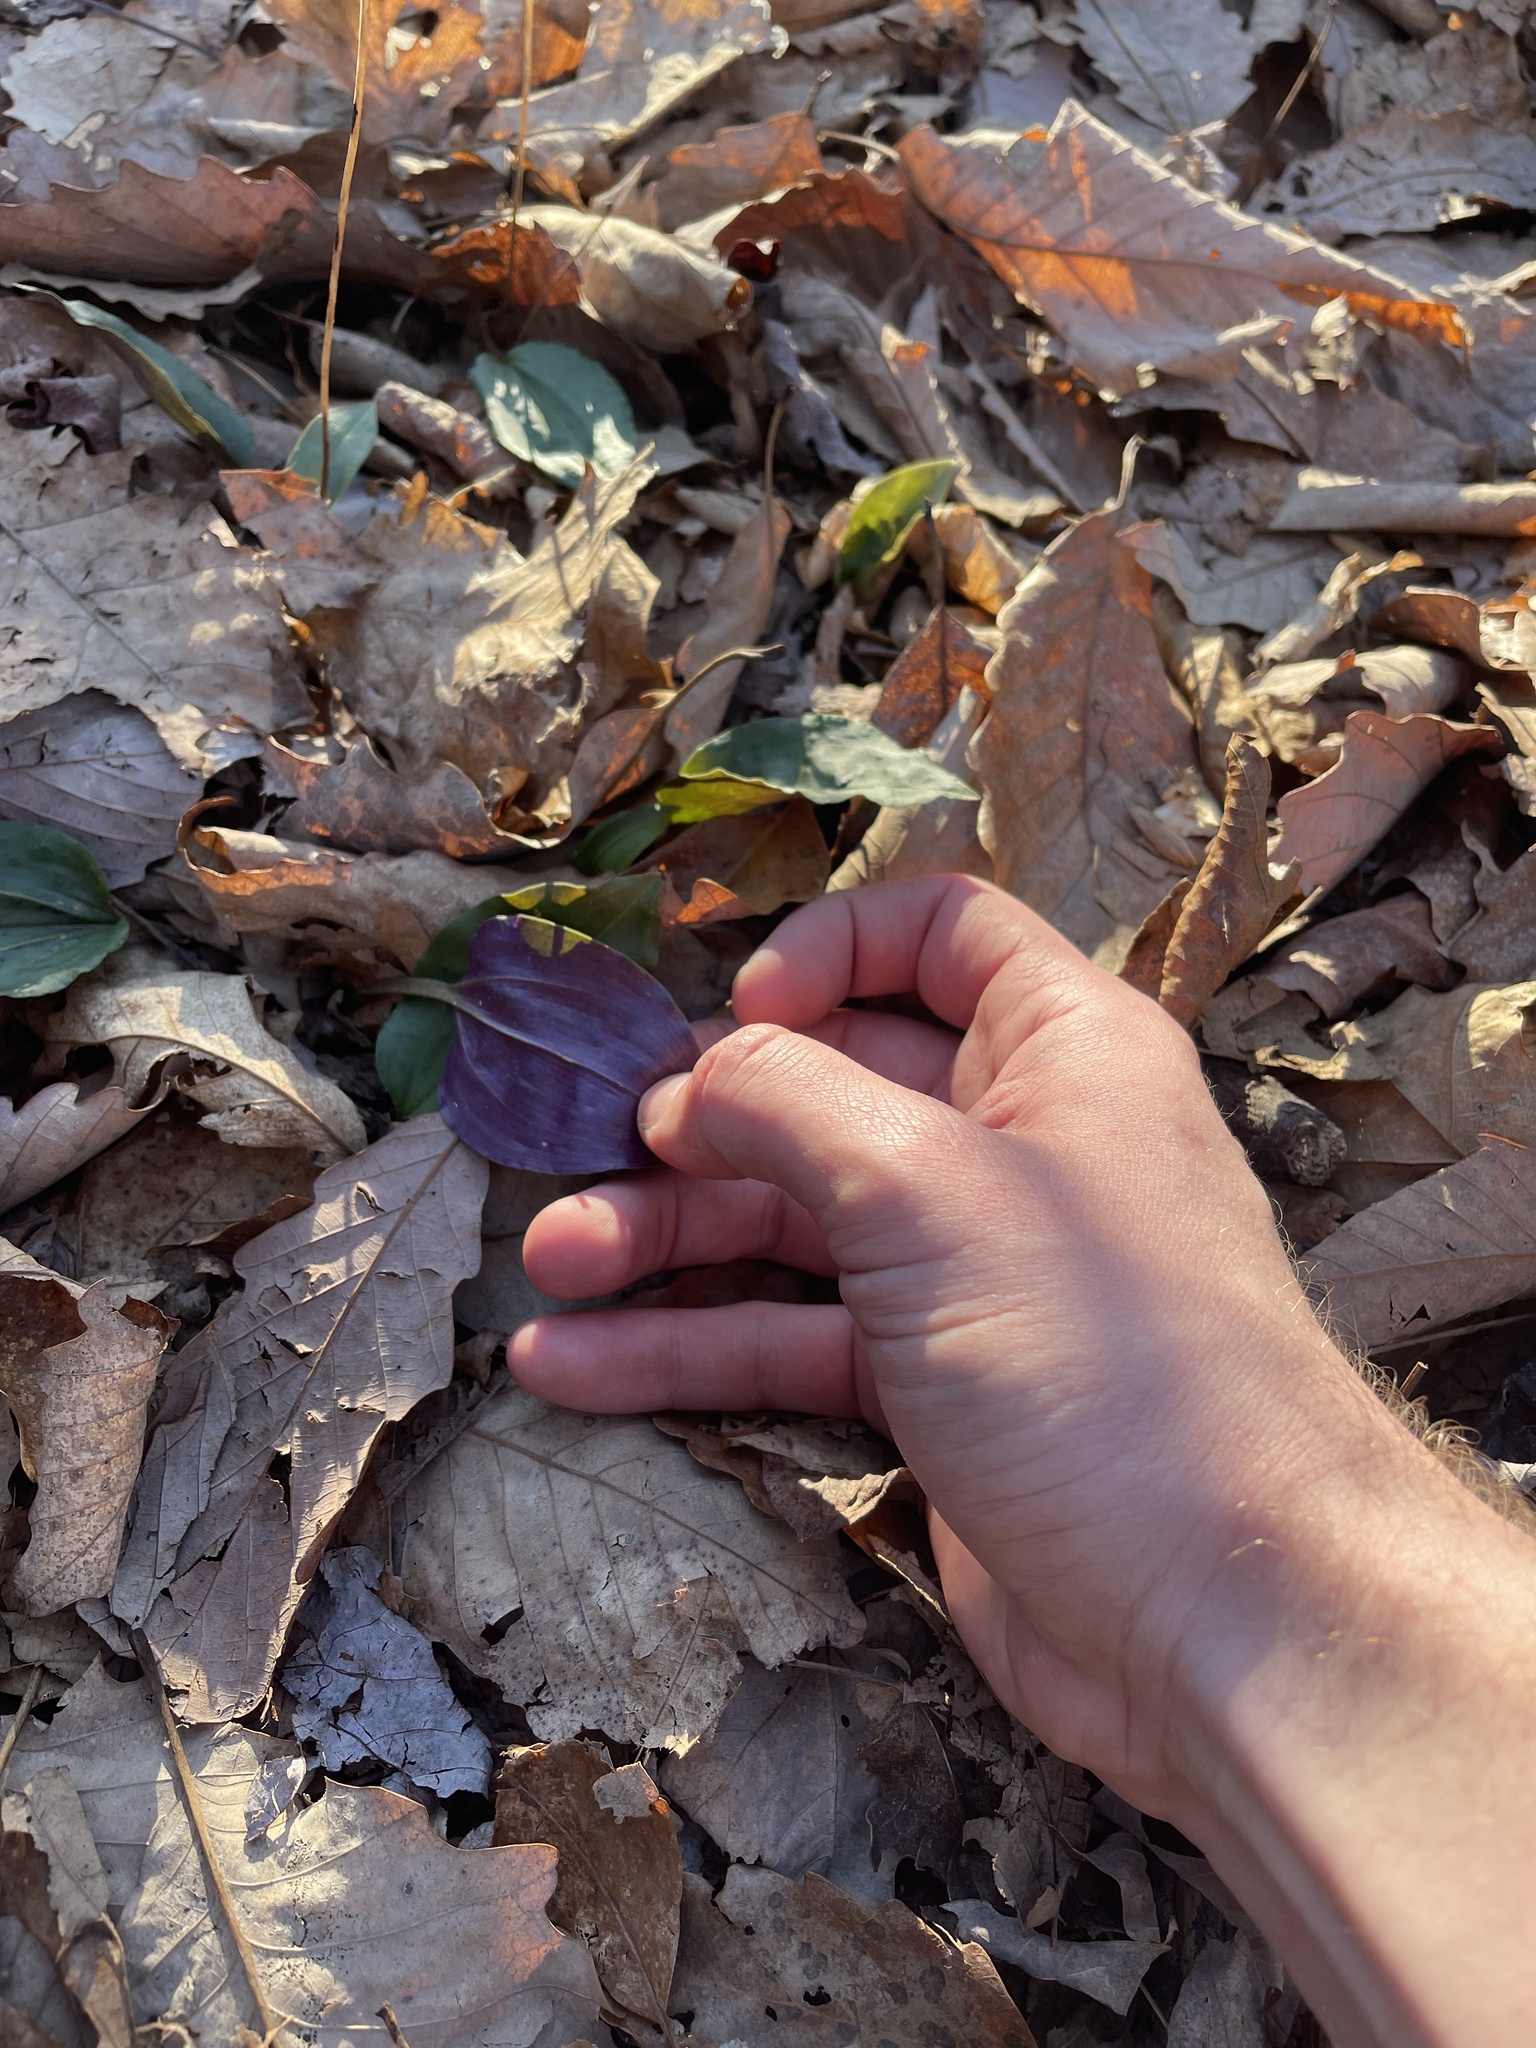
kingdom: Plantae
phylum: Tracheophyta
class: Liliopsida
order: Asparagales
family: Orchidaceae
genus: Tipularia
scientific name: Tipularia discolor
